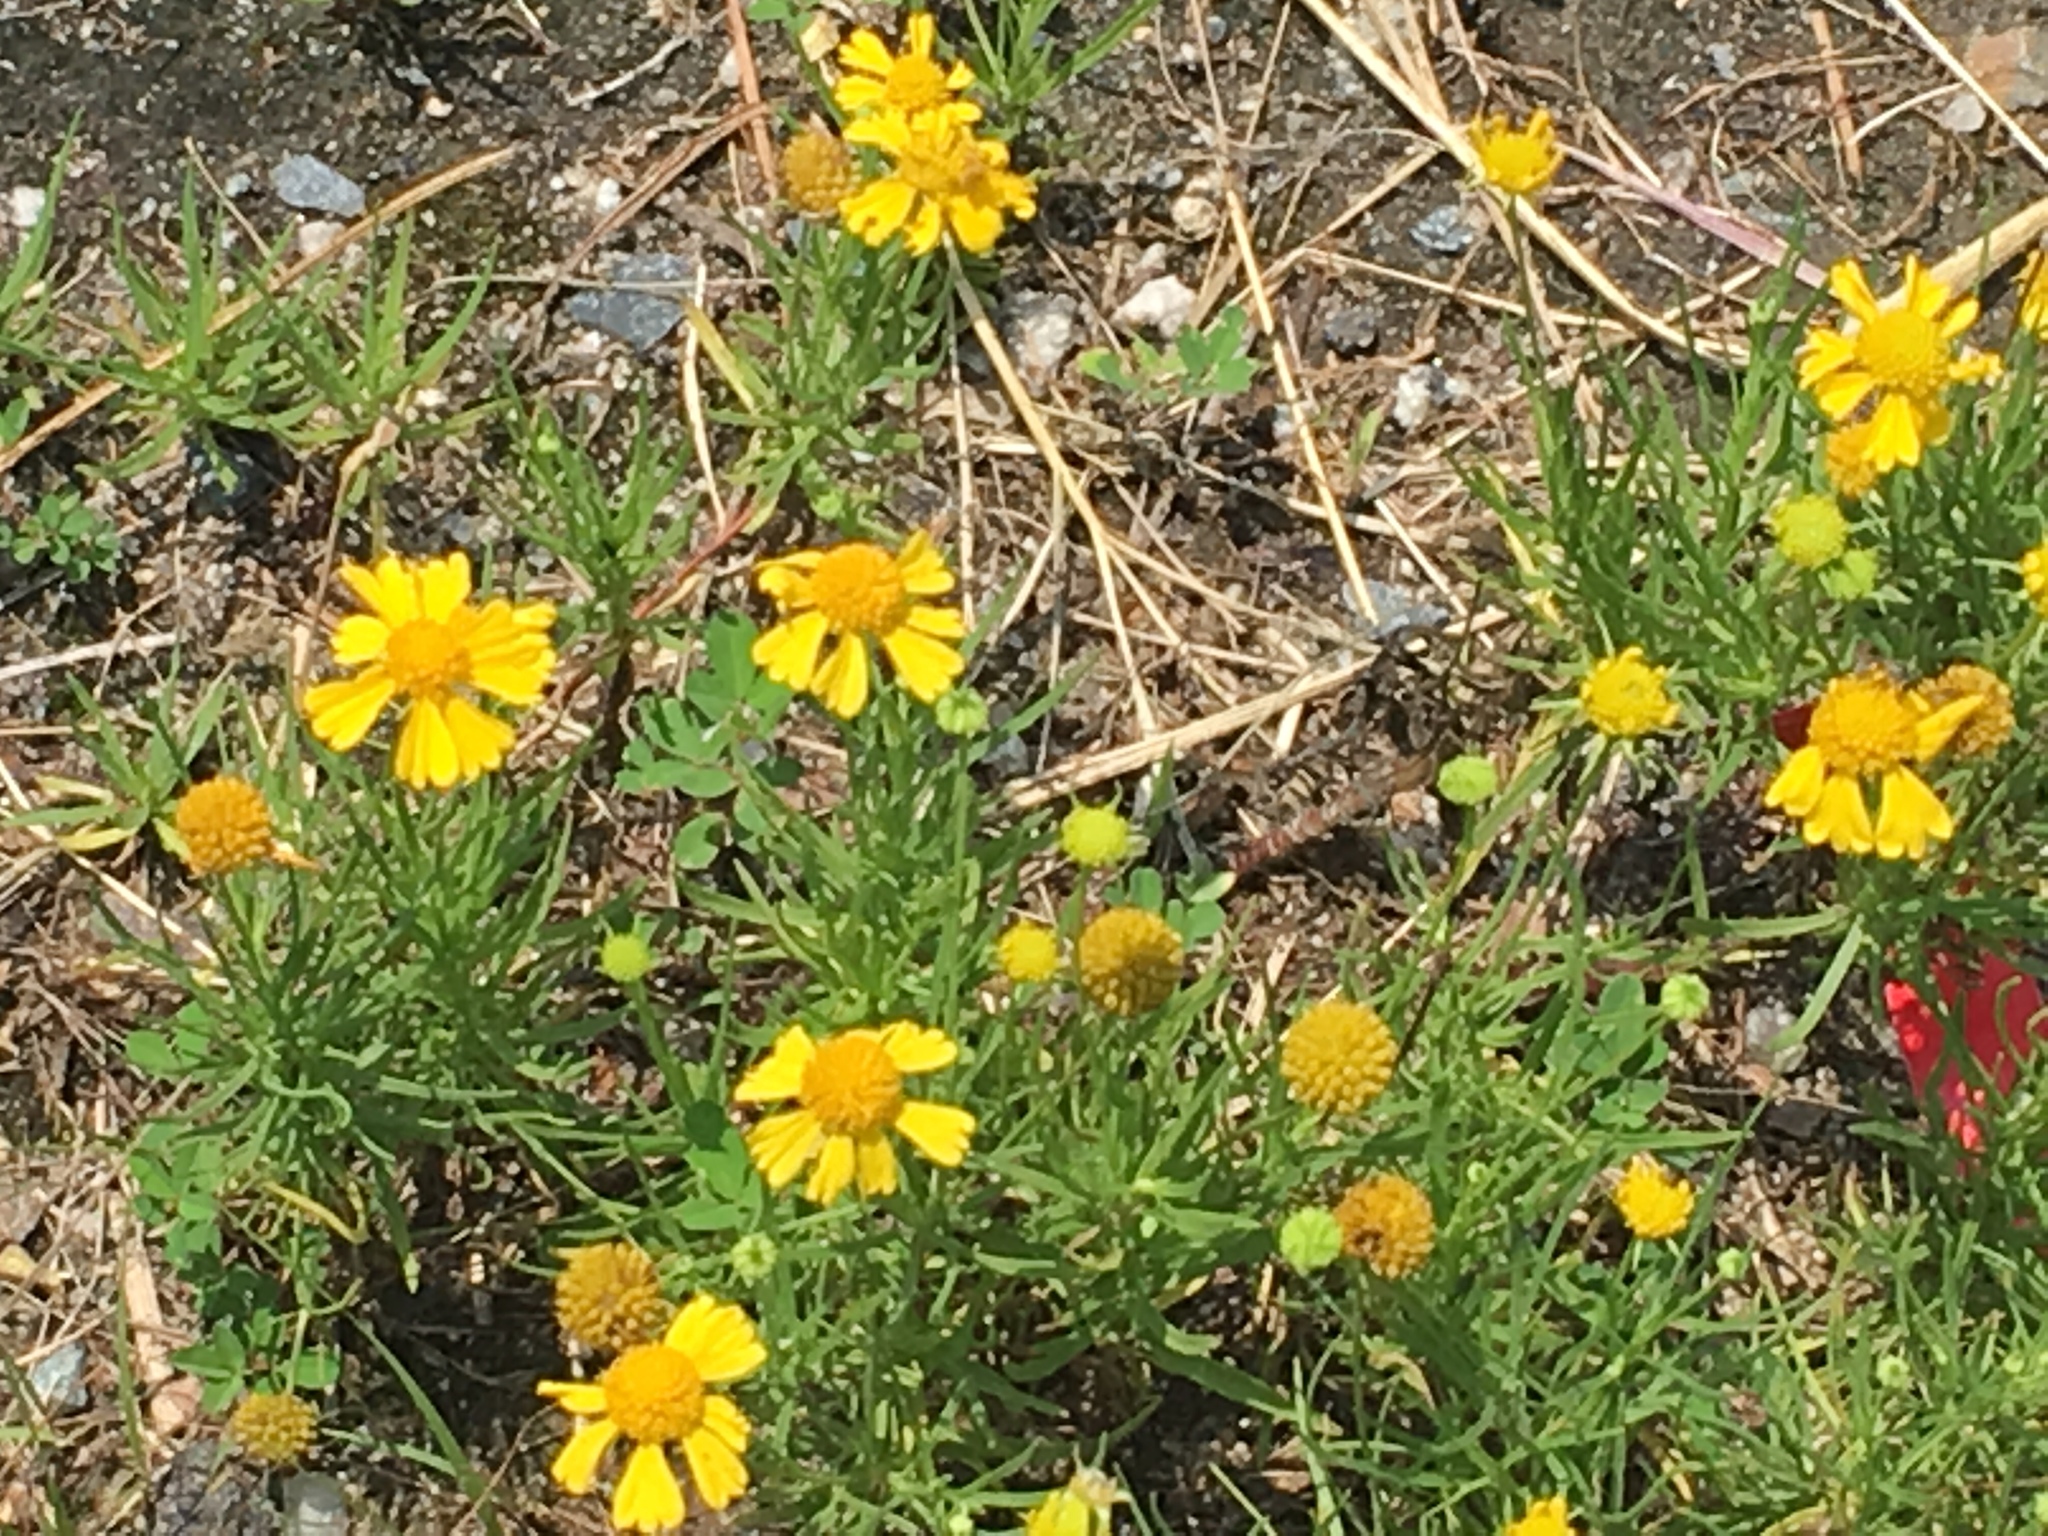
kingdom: Plantae
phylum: Tracheophyta
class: Magnoliopsida
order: Asterales
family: Asteraceae
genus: Helenium
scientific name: Helenium amarum
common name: Bitter sneezeweed
